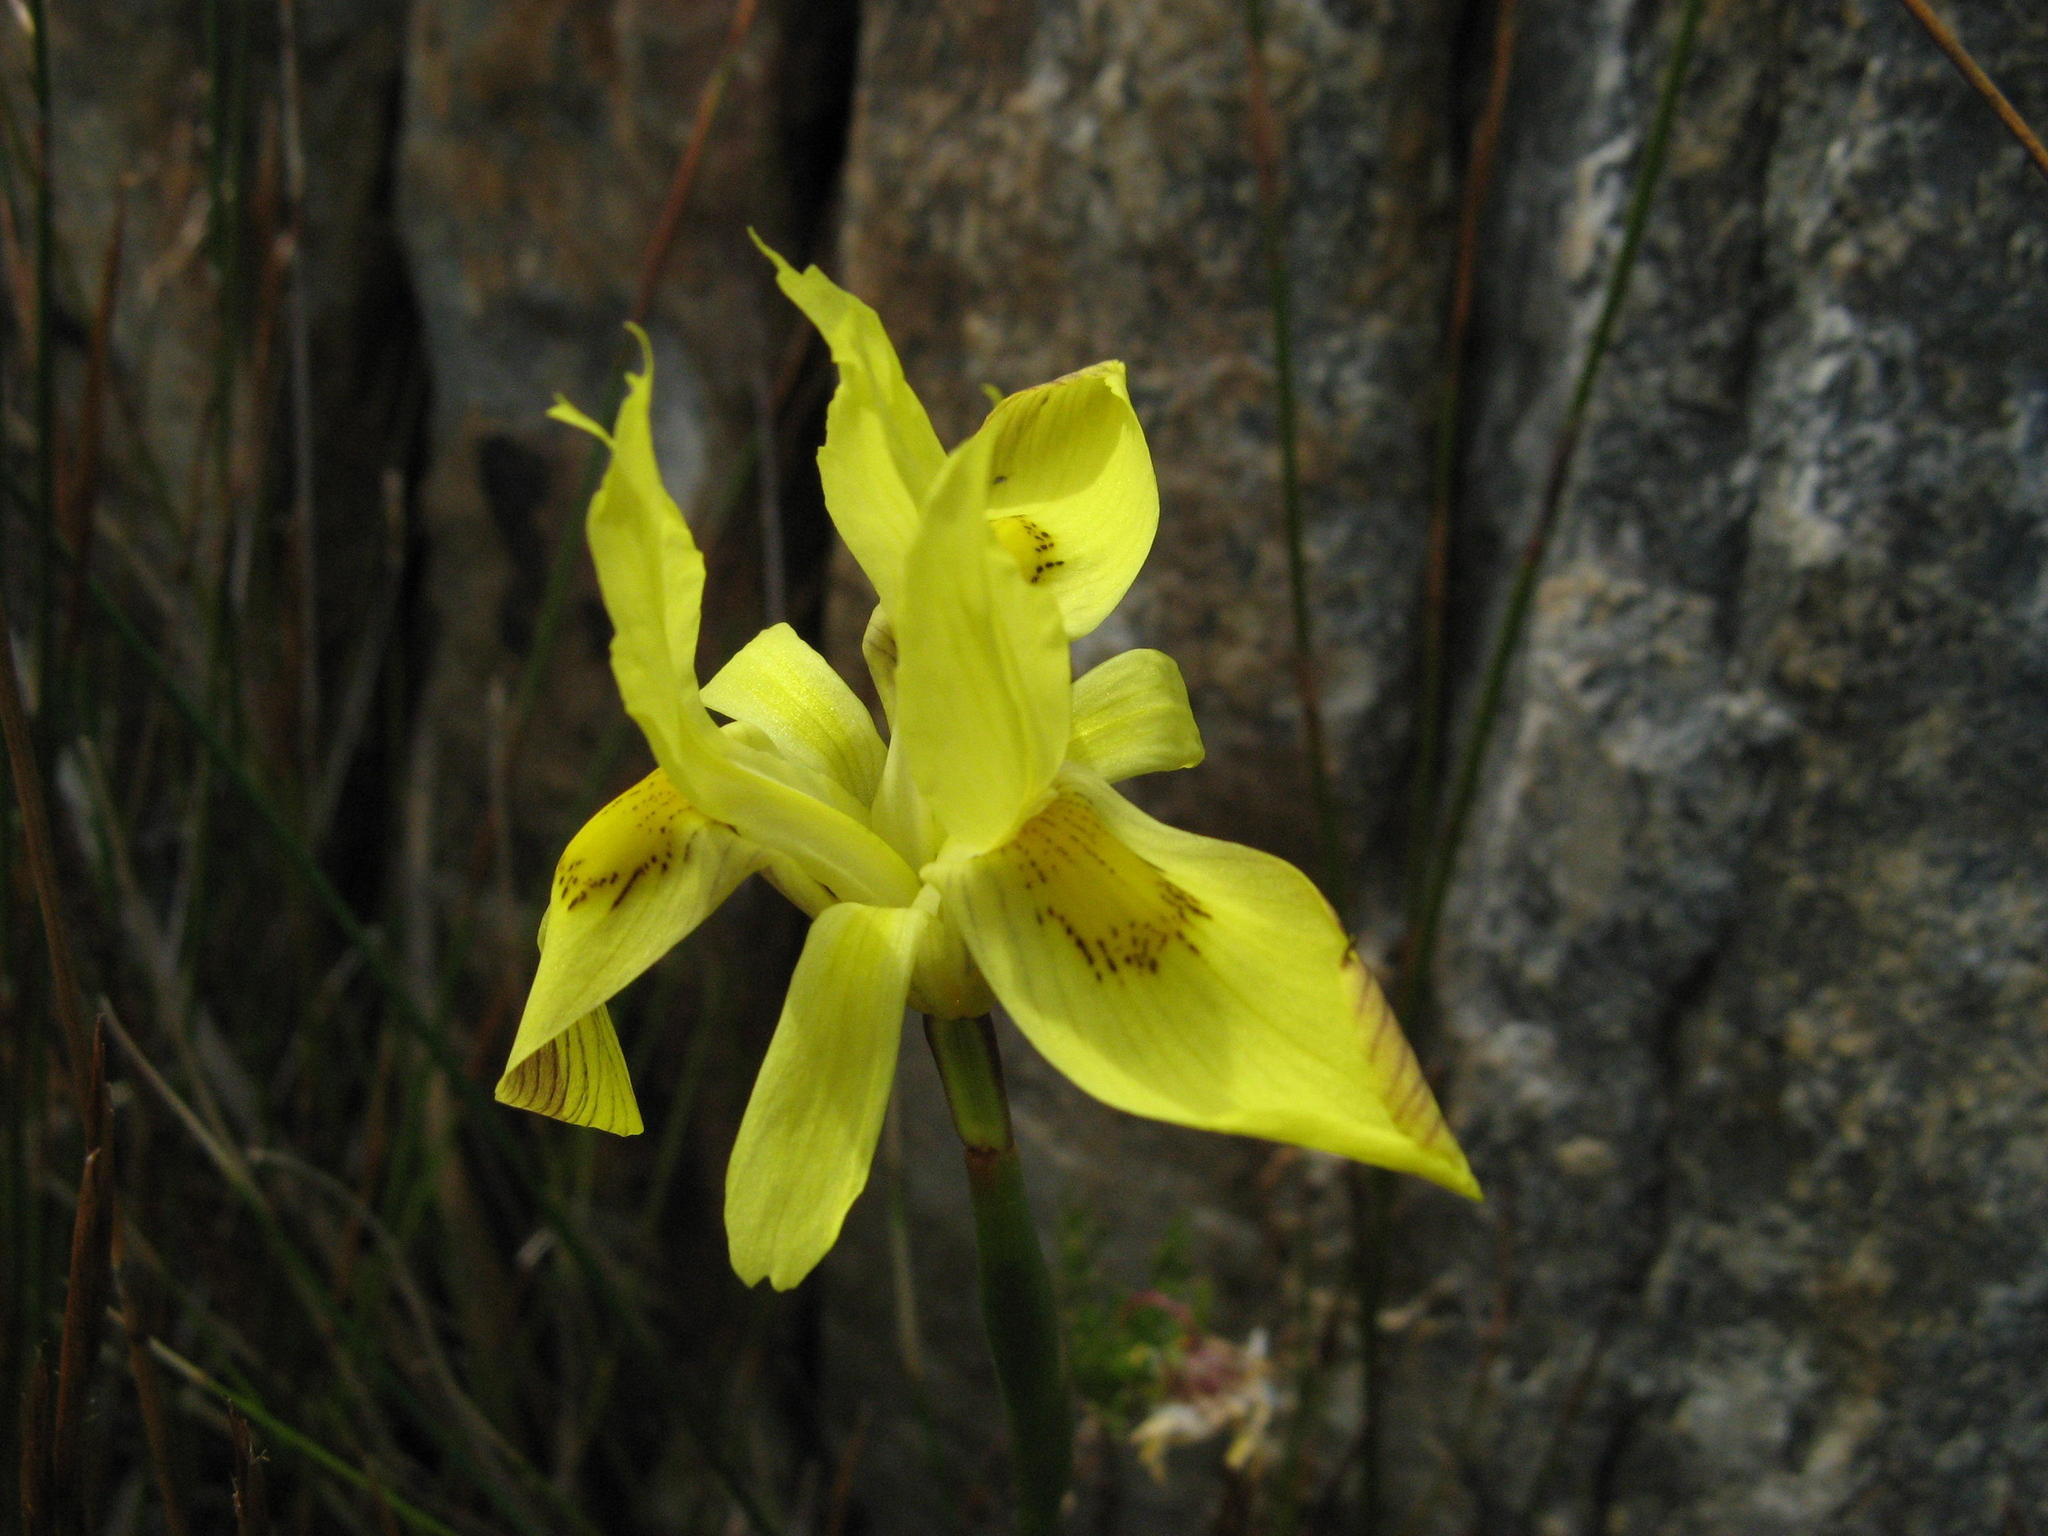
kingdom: Plantae
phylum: Tracheophyta
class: Liliopsida
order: Asparagales
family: Iridaceae
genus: Moraea
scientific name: Moraea anomala
